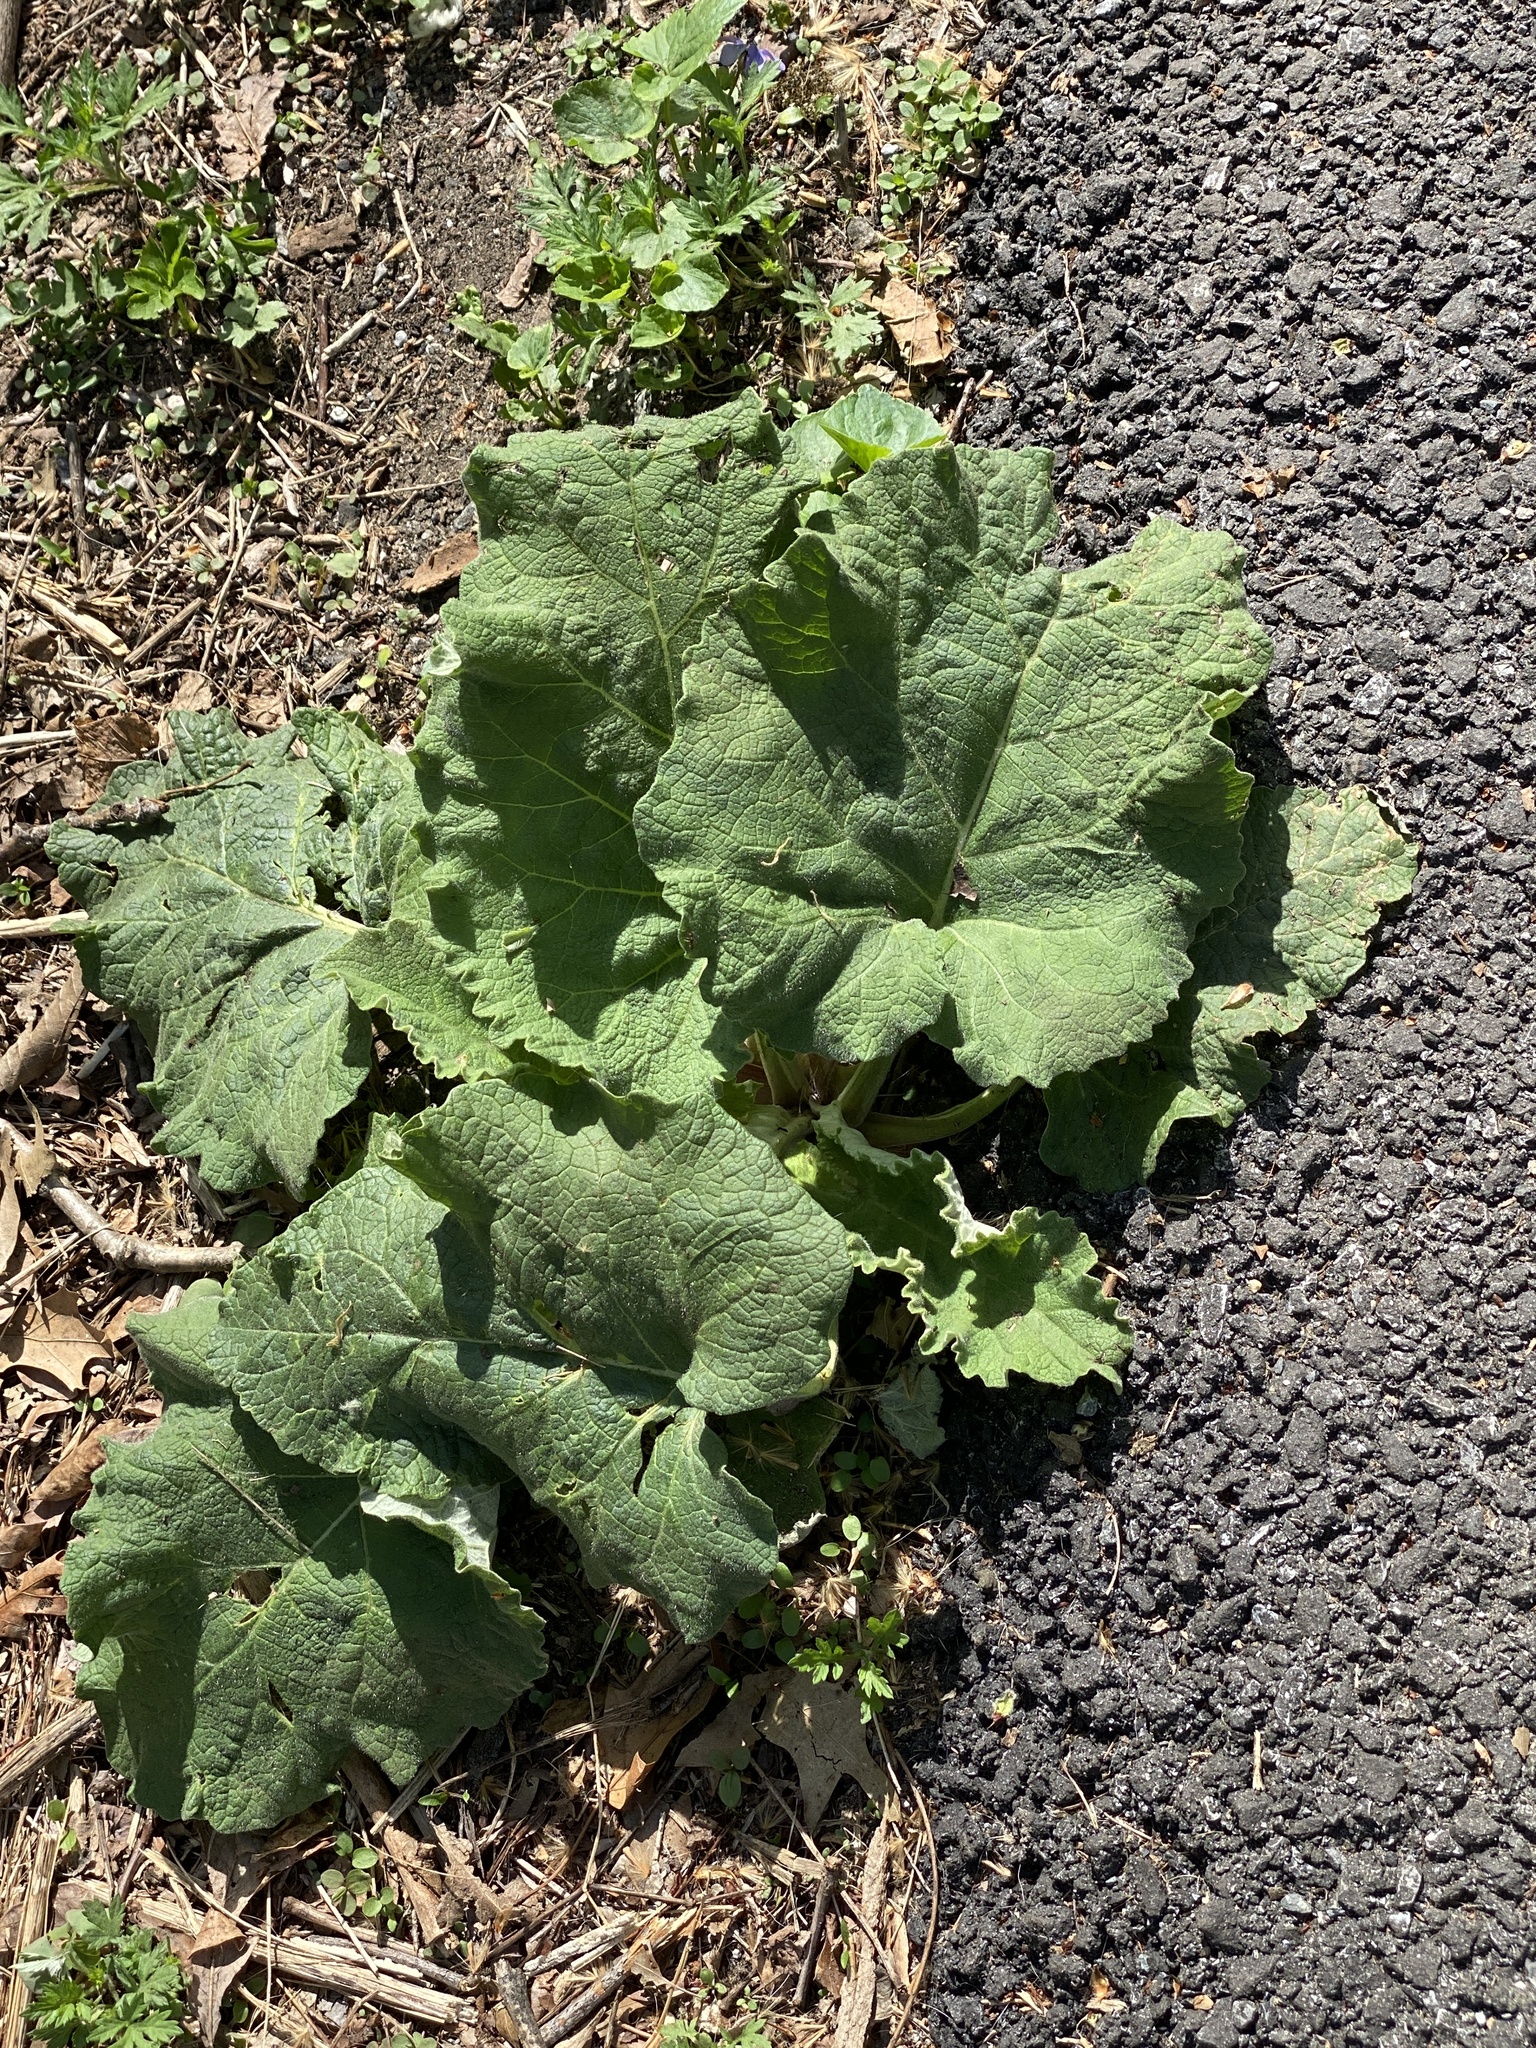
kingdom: Plantae
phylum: Tracheophyta
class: Magnoliopsida
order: Asterales
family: Asteraceae
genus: Arctium
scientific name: Arctium
